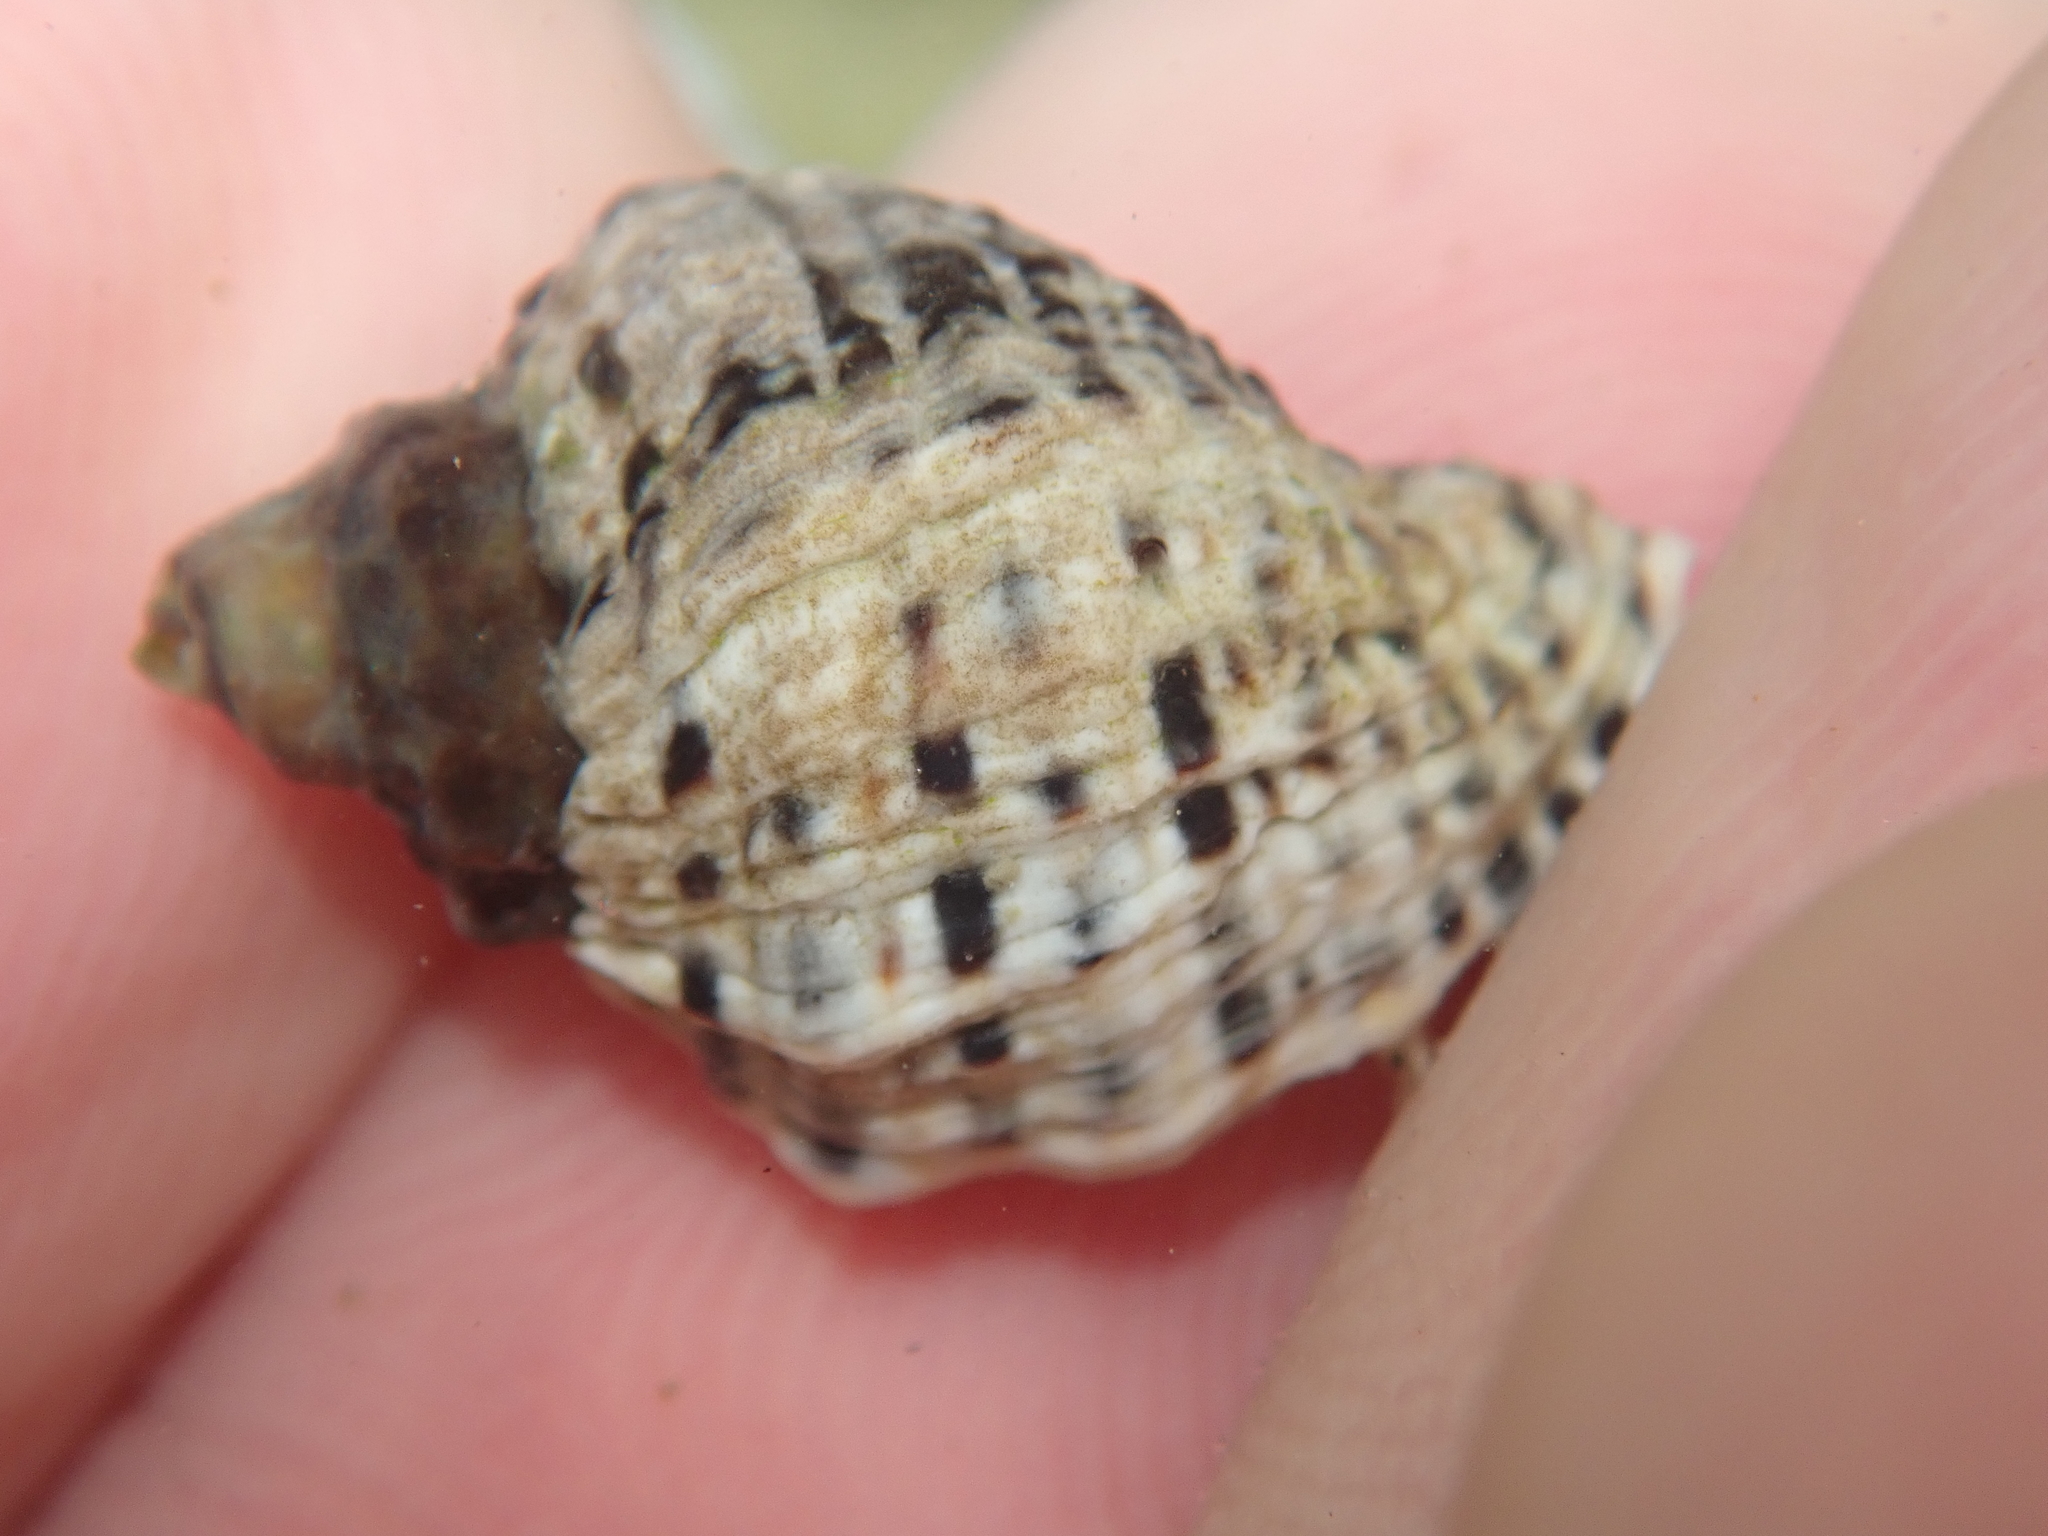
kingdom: Animalia
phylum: Mollusca
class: Gastropoda
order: Neogastropoda
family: Muricidae
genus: Haustrum
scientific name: Haustrum scobina
